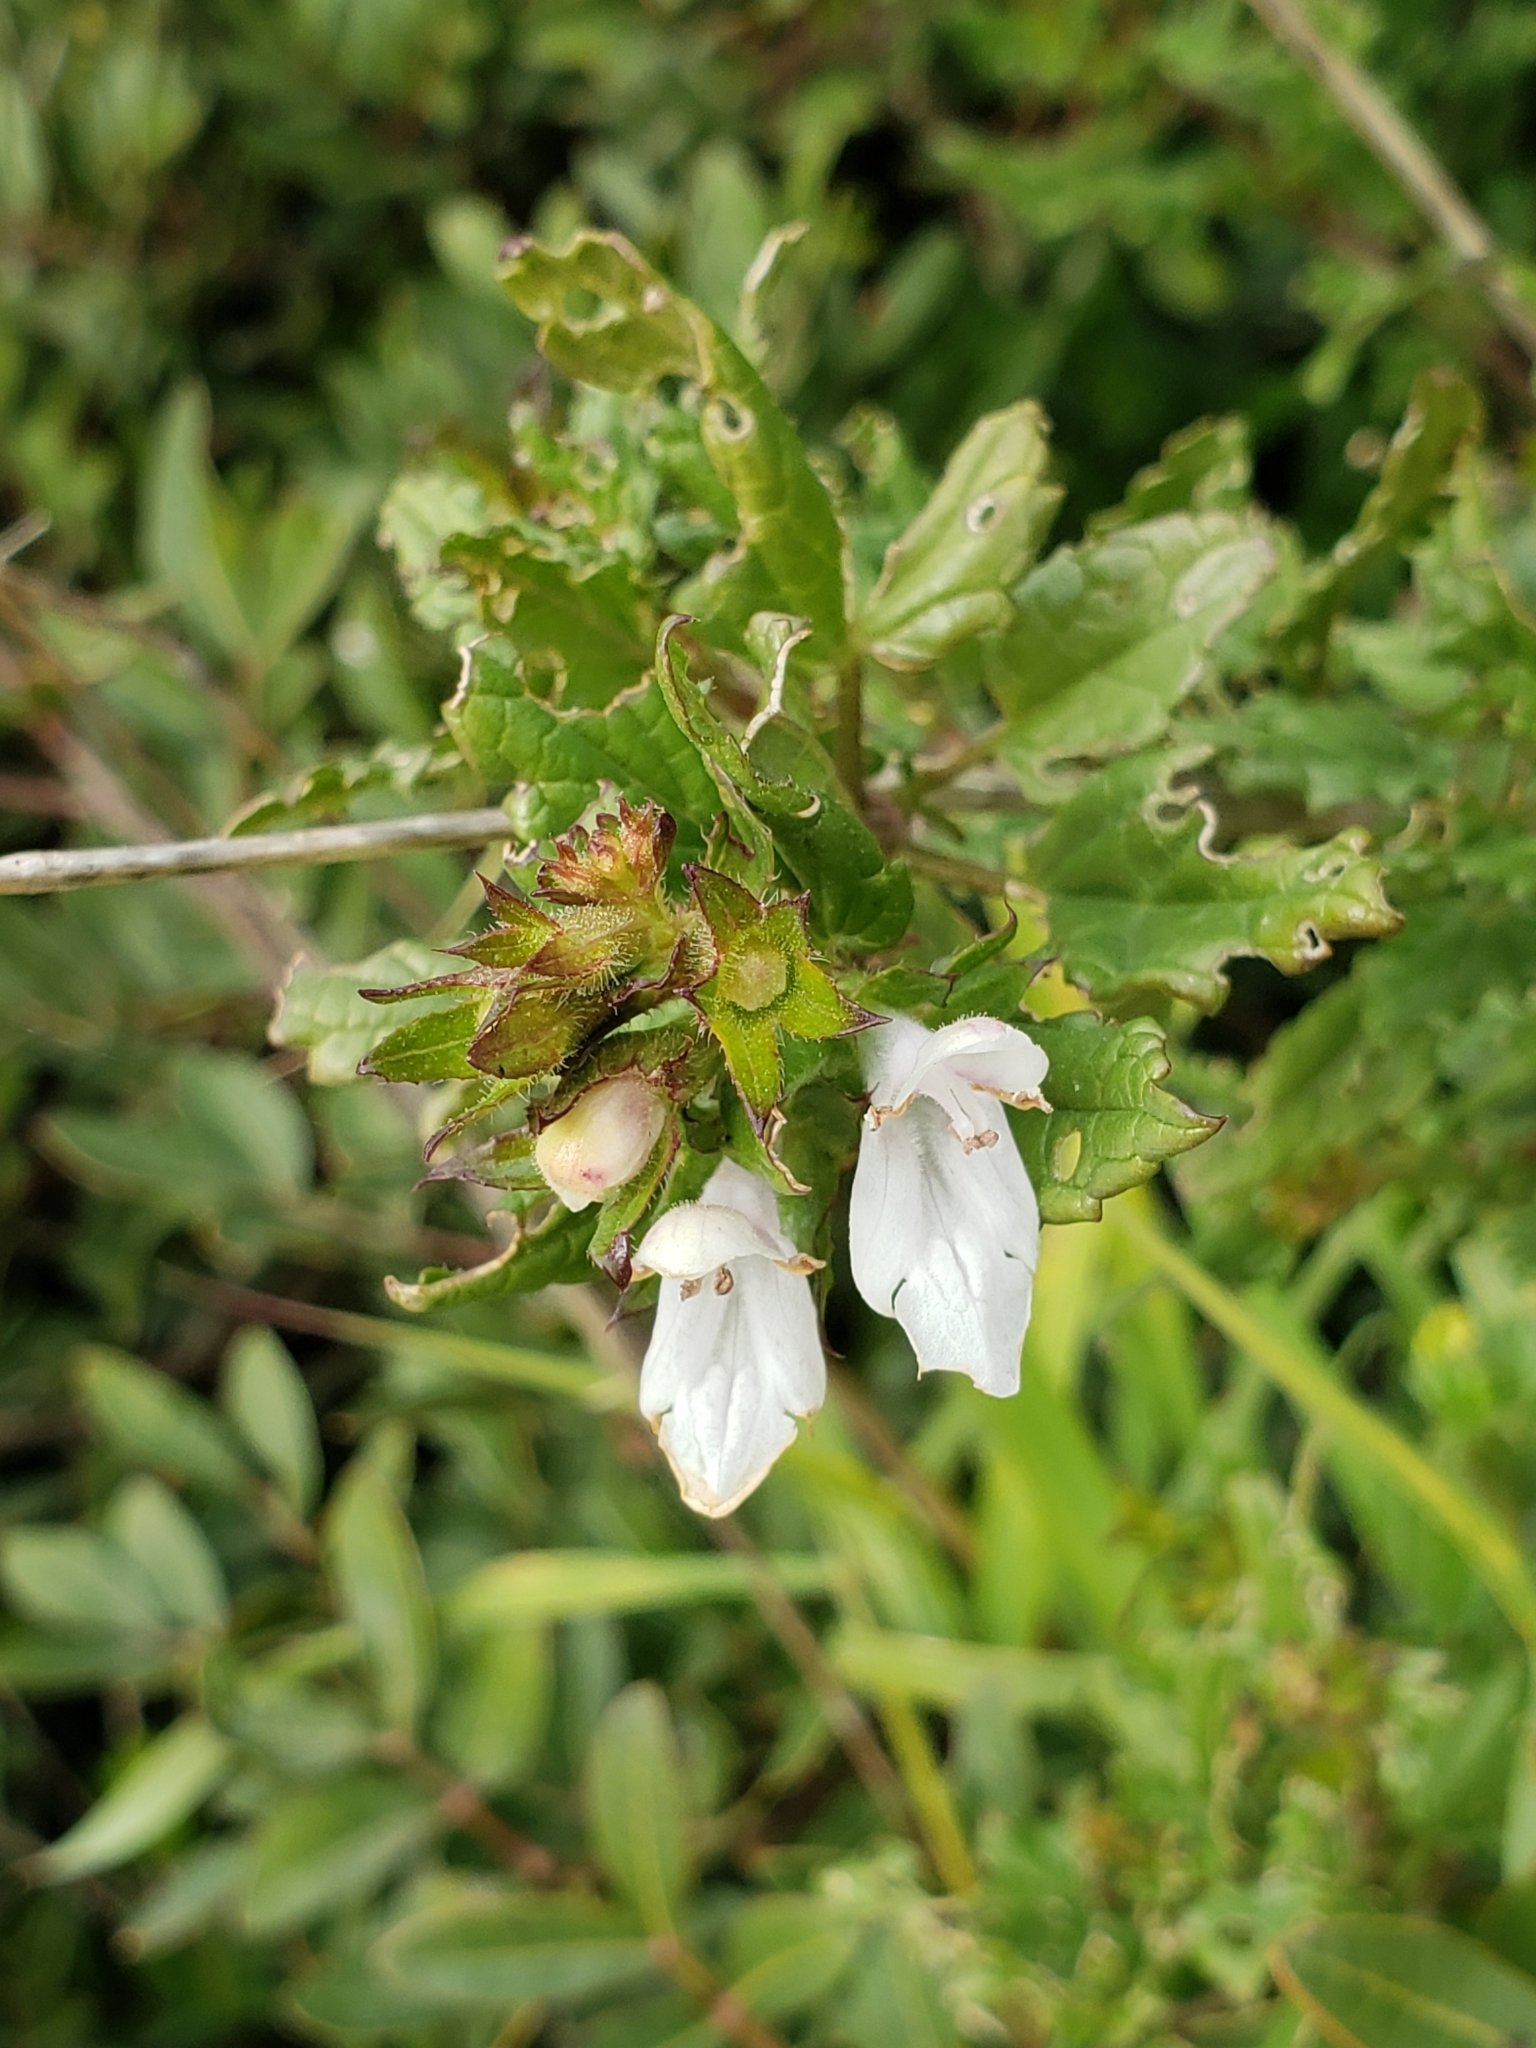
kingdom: Plantae
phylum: Tracheophyta
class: Magnoliopsida
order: Lamiales
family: Lamiaceae
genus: Prasium
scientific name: Prasium majus
